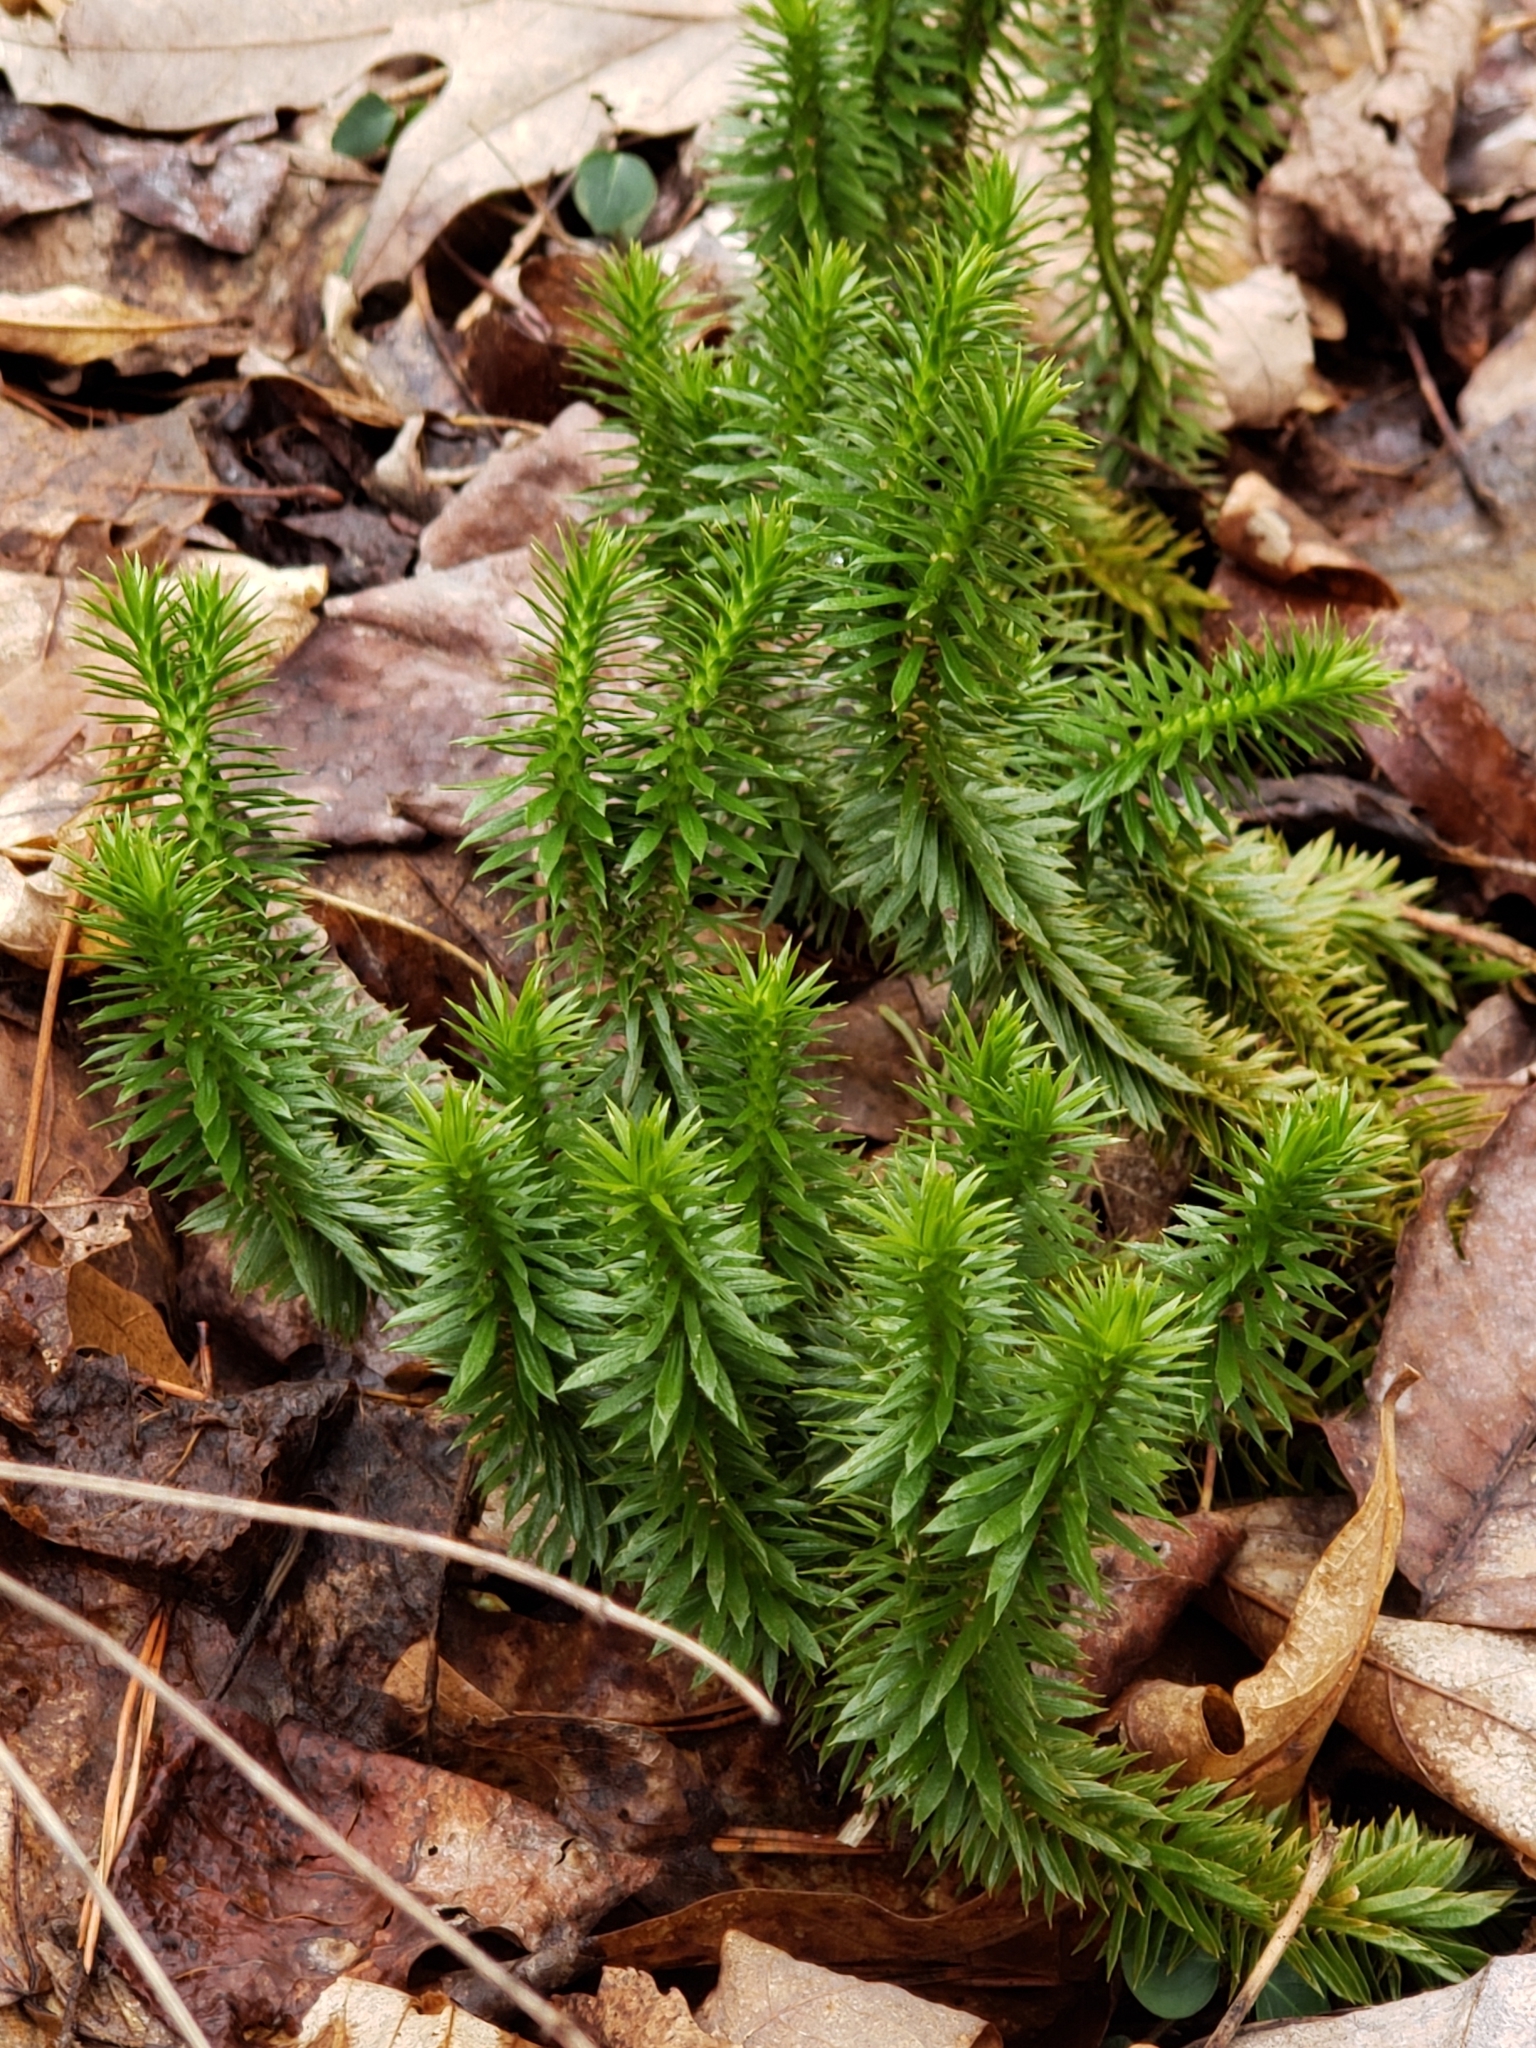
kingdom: Plantae
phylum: Tracheophyta
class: Lycopodiopsida
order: Lycopodiales
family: Lycopodiaceae
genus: Huperzia
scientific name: Huperzia lucidula
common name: Shining clubmoss
